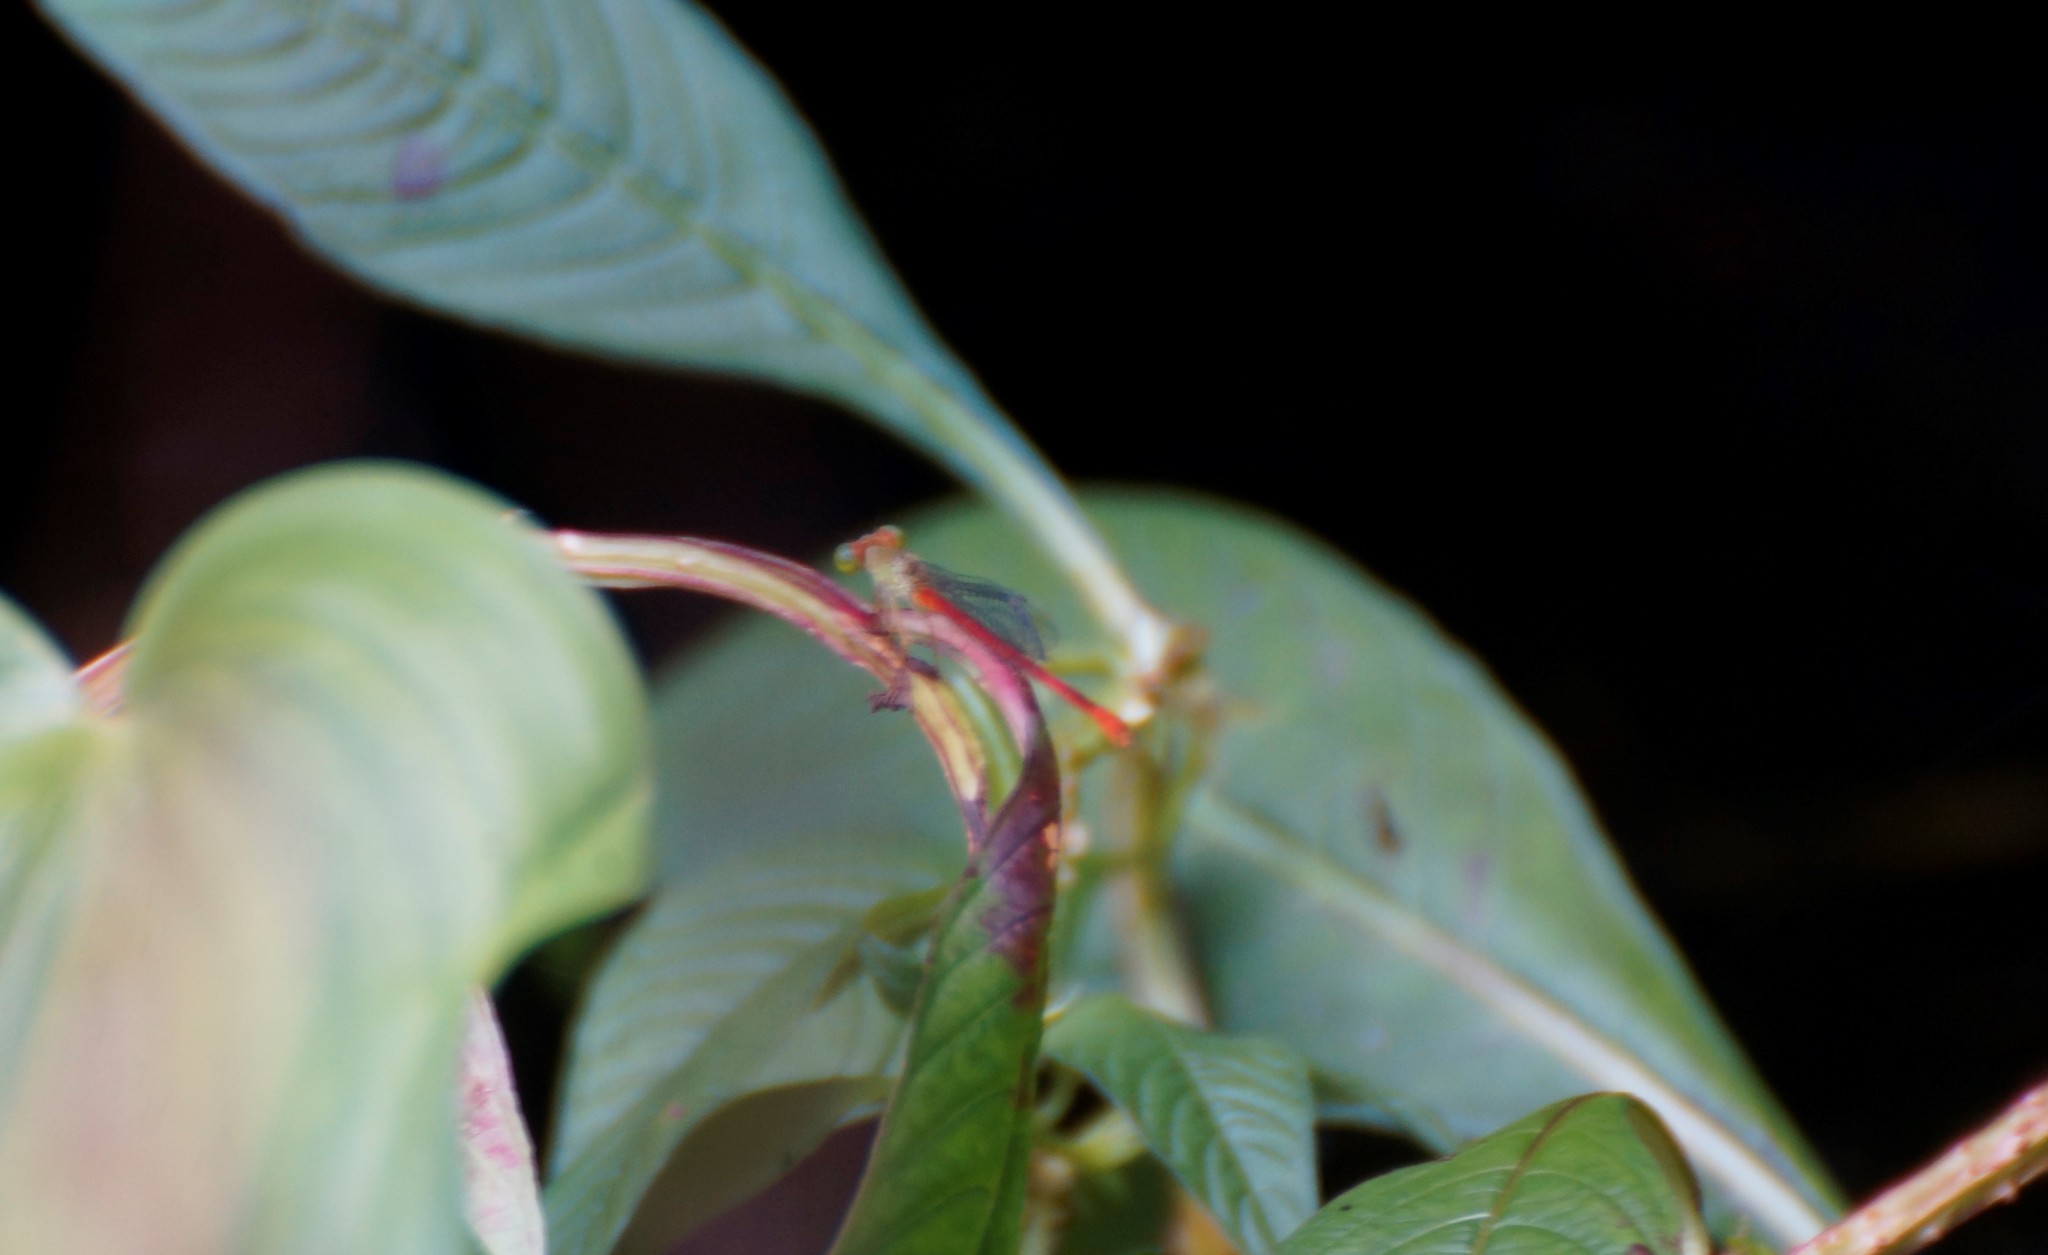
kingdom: Animalia
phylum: Arthropoda
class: Insecta
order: Odonata
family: Coenagrionidae
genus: Ceriagrion
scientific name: Ceriagrion aeruginosum
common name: Redtail
